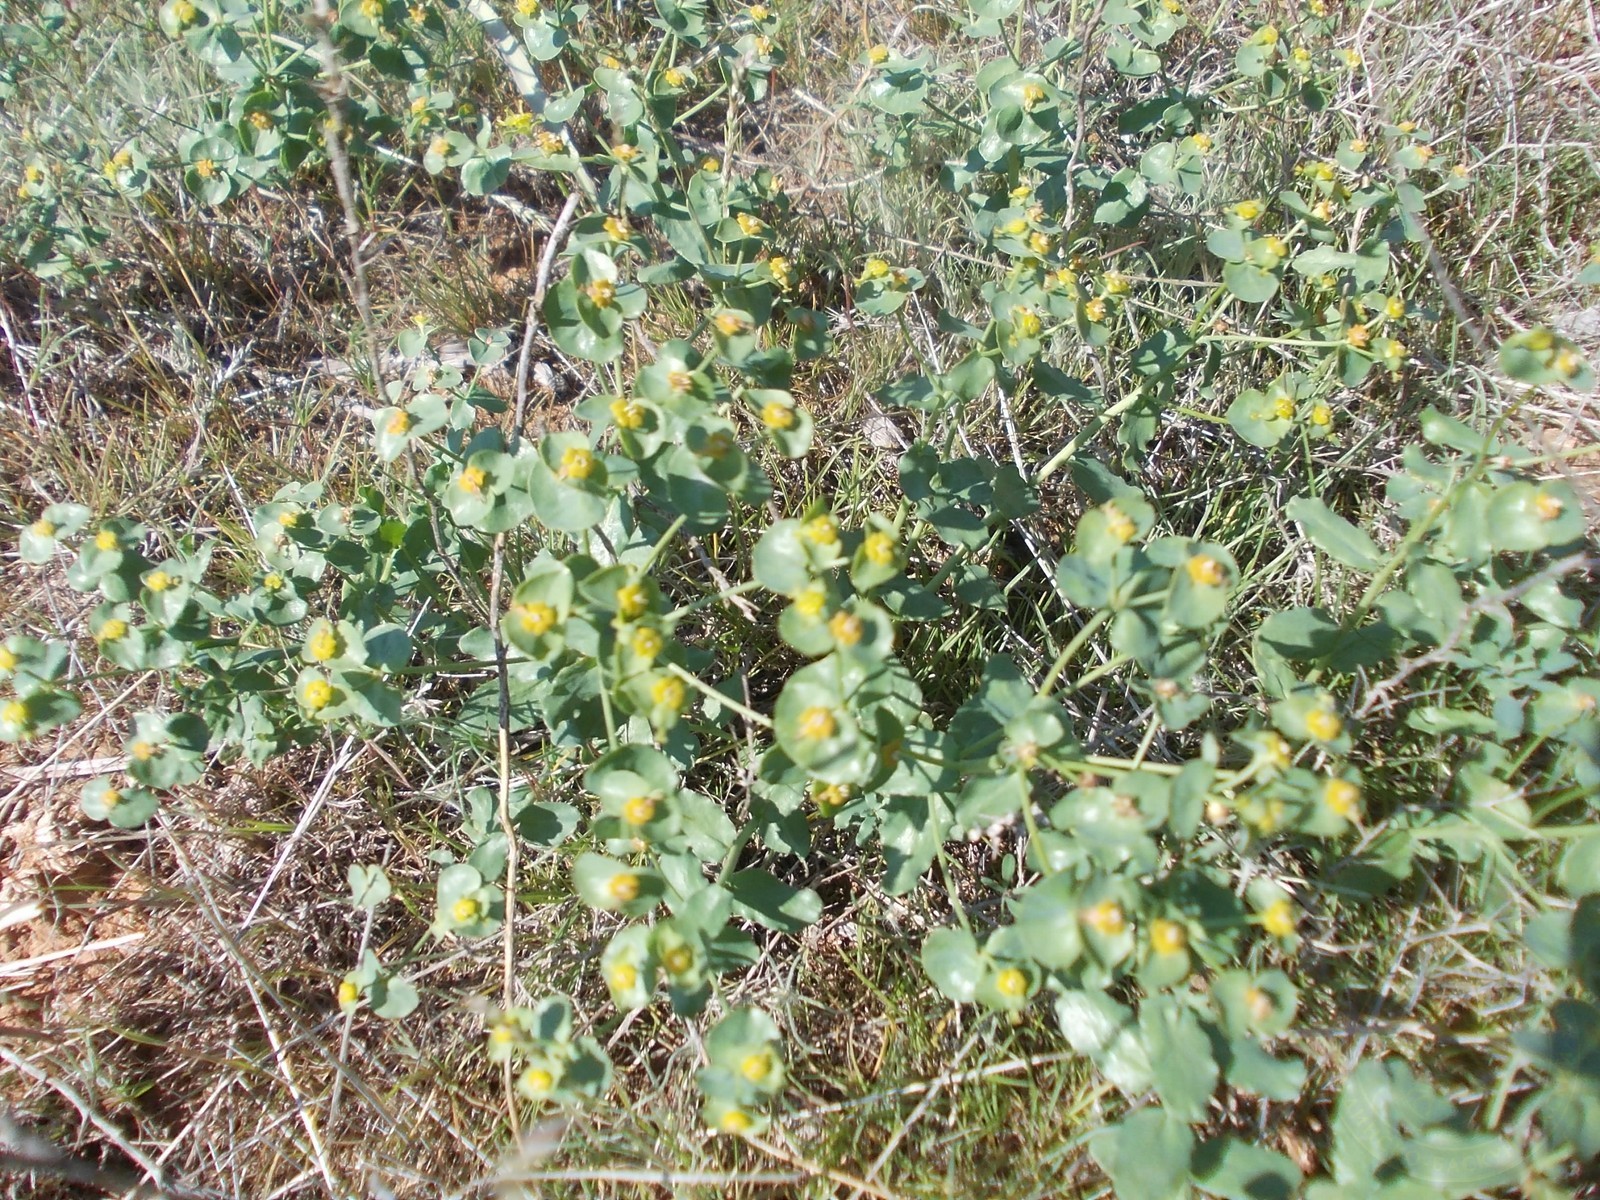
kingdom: Plantae
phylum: Tracheophyta
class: Magnoliopsida
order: Malpighiales
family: Euphorbiaceae
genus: Euphorbia
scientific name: Euphorbia undulata
